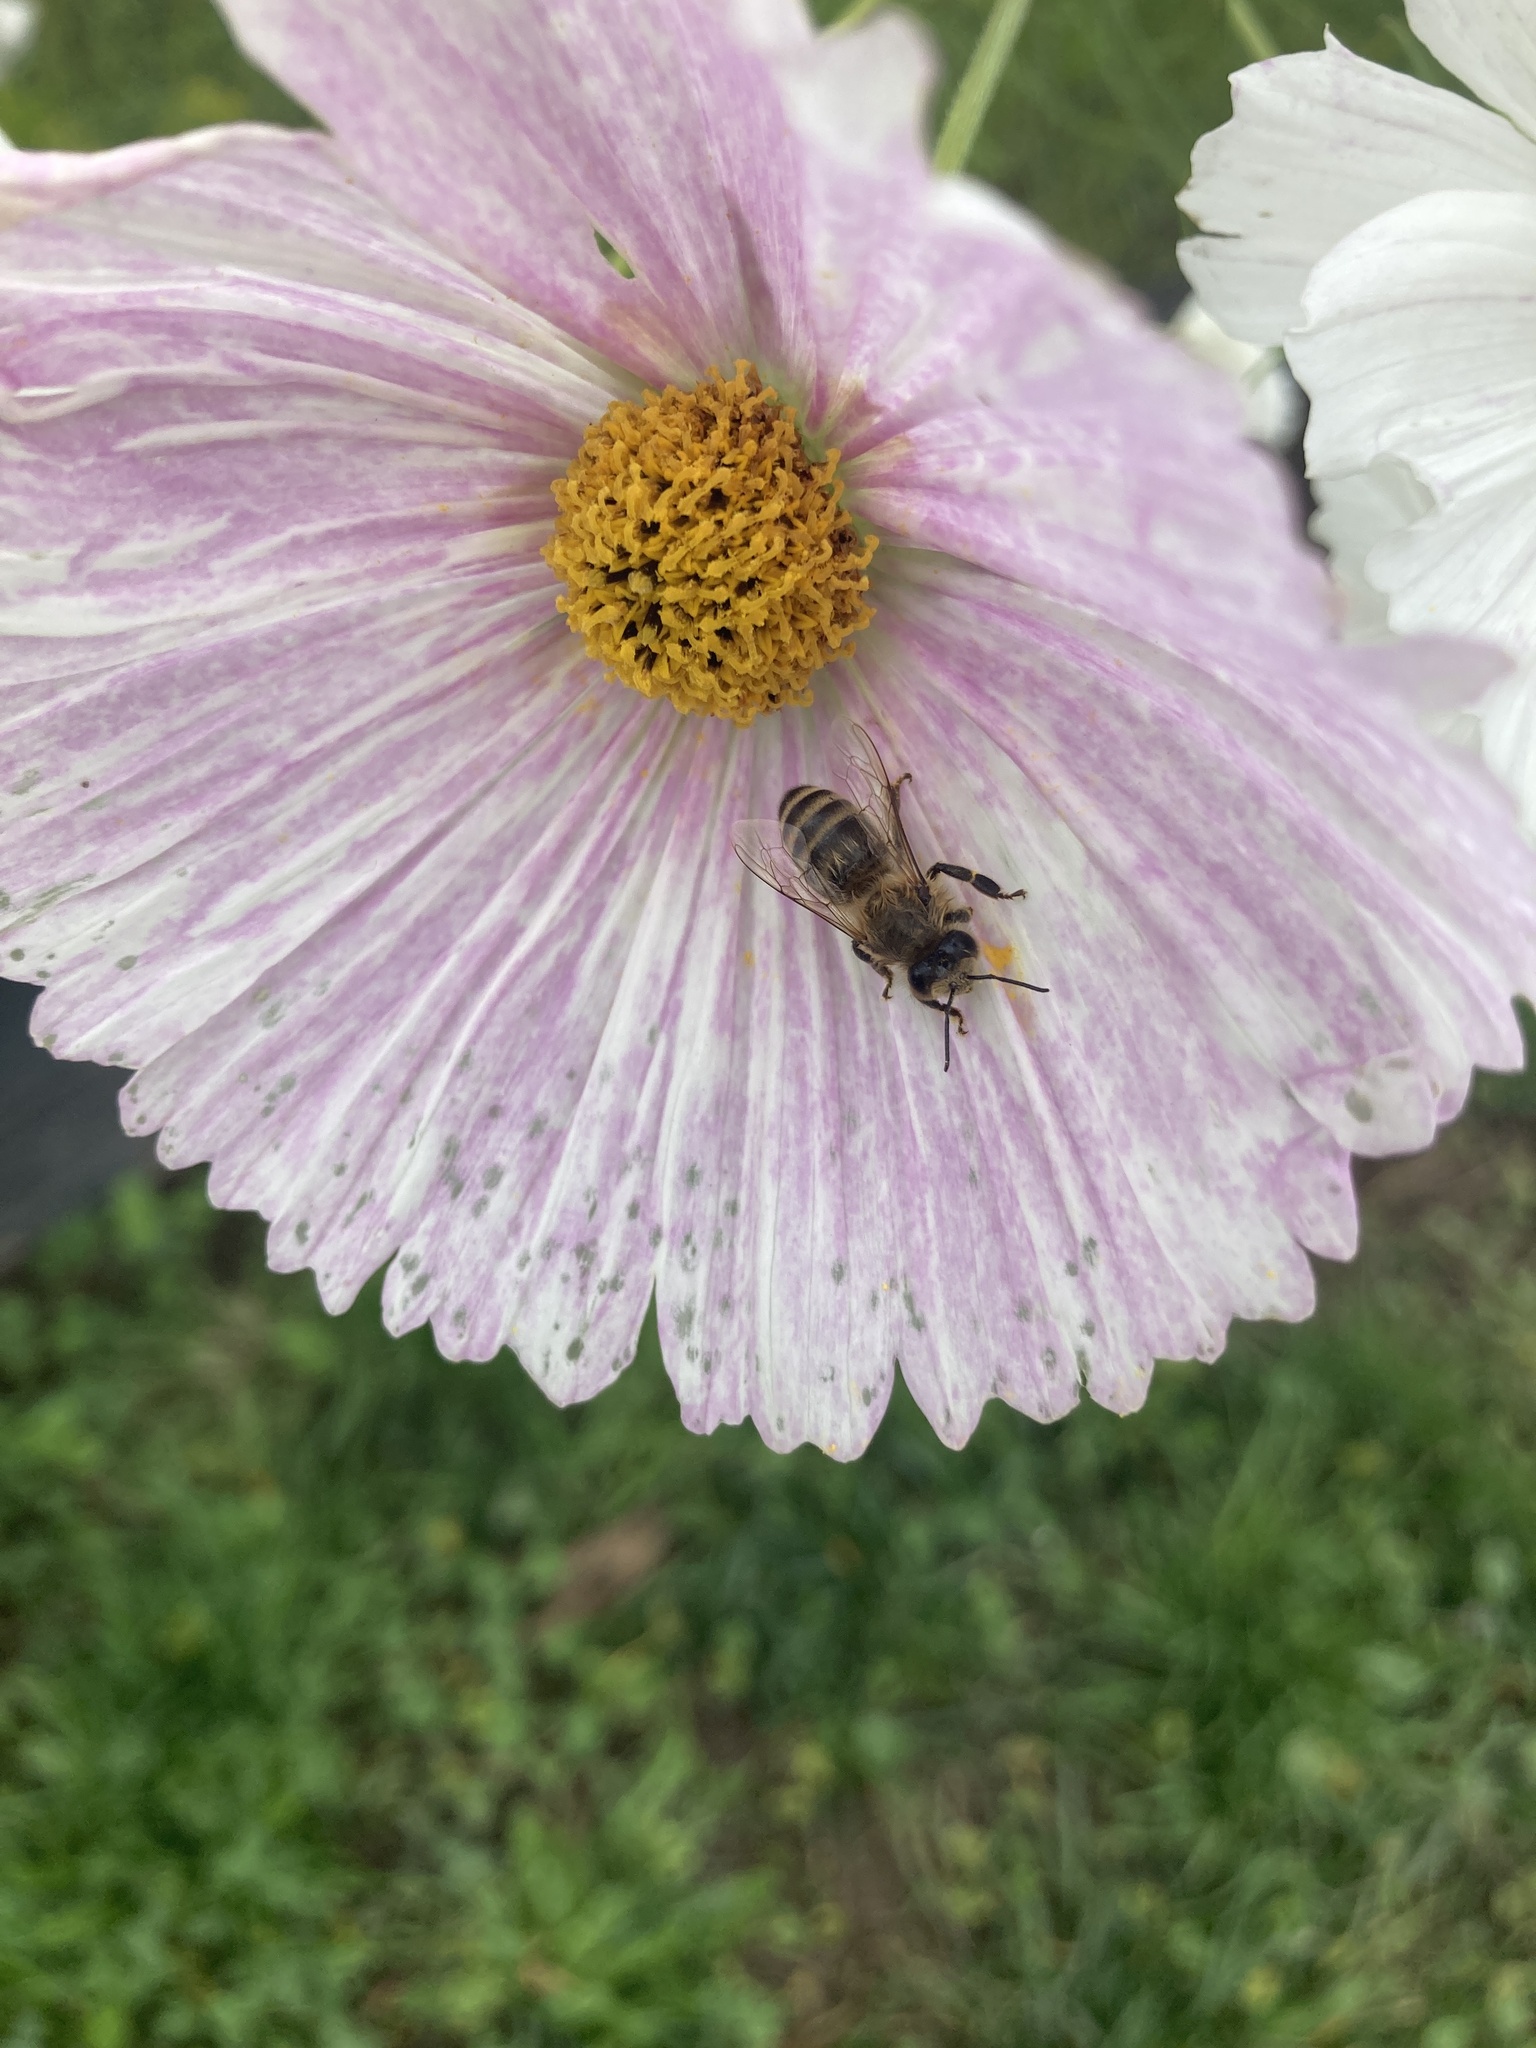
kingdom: Animalia
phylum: Arthropoda
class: Insecta
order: Hymenoptera
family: Apidae
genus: Apis
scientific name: Apis mellifera
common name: Honey bee
